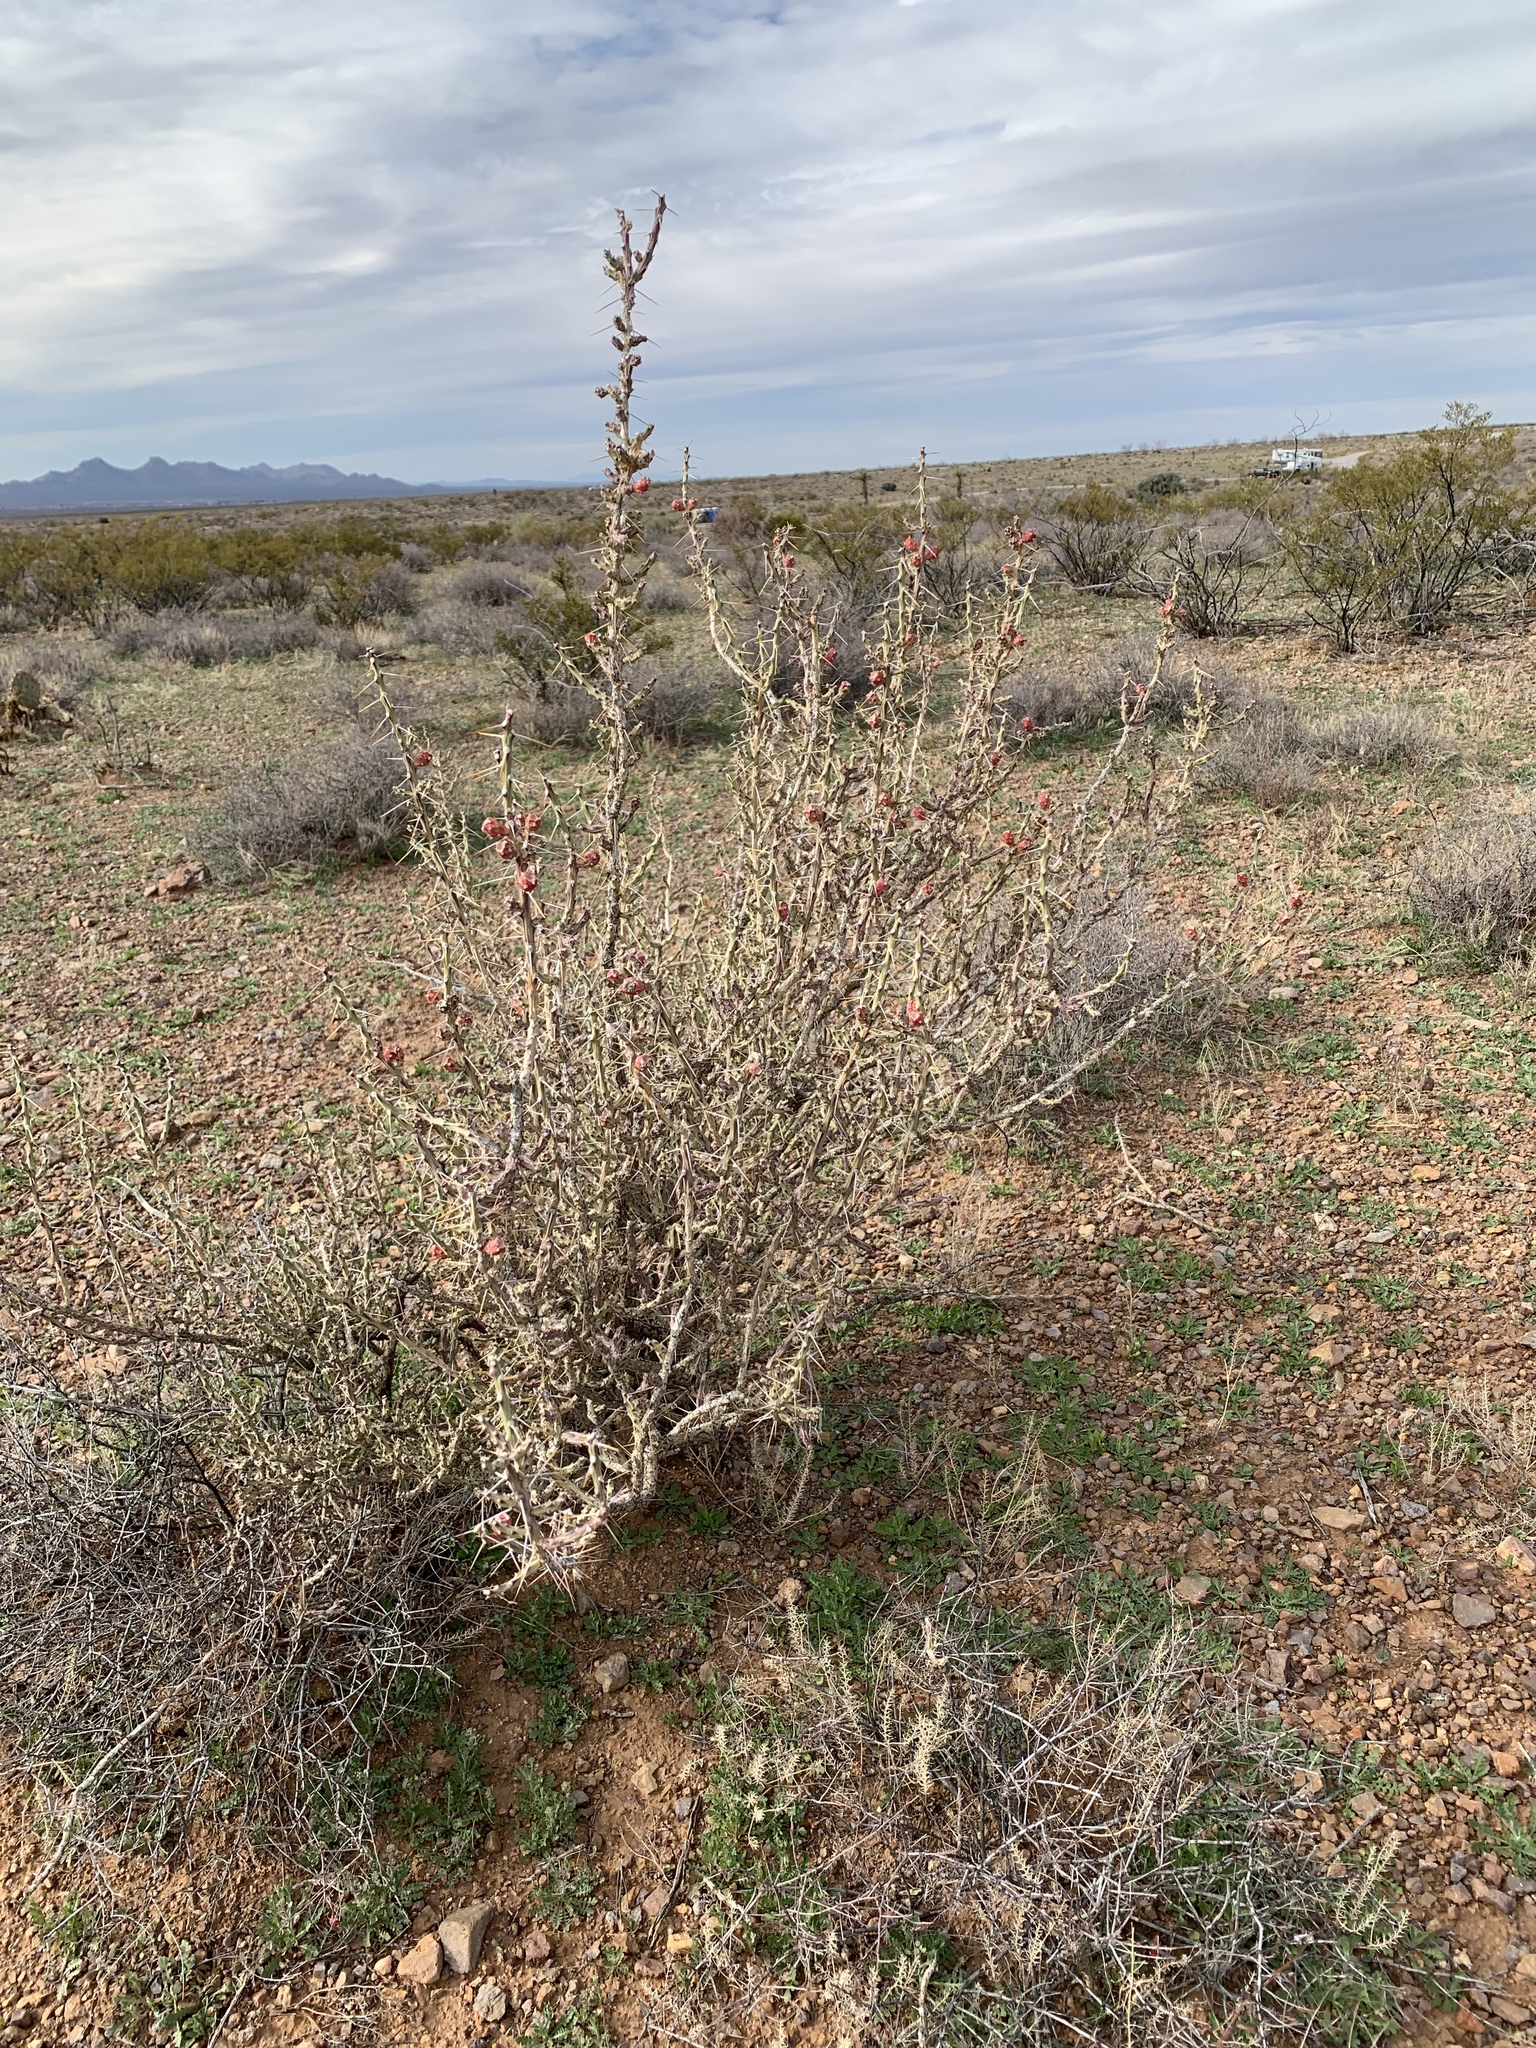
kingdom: Plantae
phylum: Tracheophyta
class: Magnoliopsida
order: Caryophyllales
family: Cactaceae
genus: Cylindropuntia
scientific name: Cylindropuntia leptocaulis
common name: Christmas cactus
